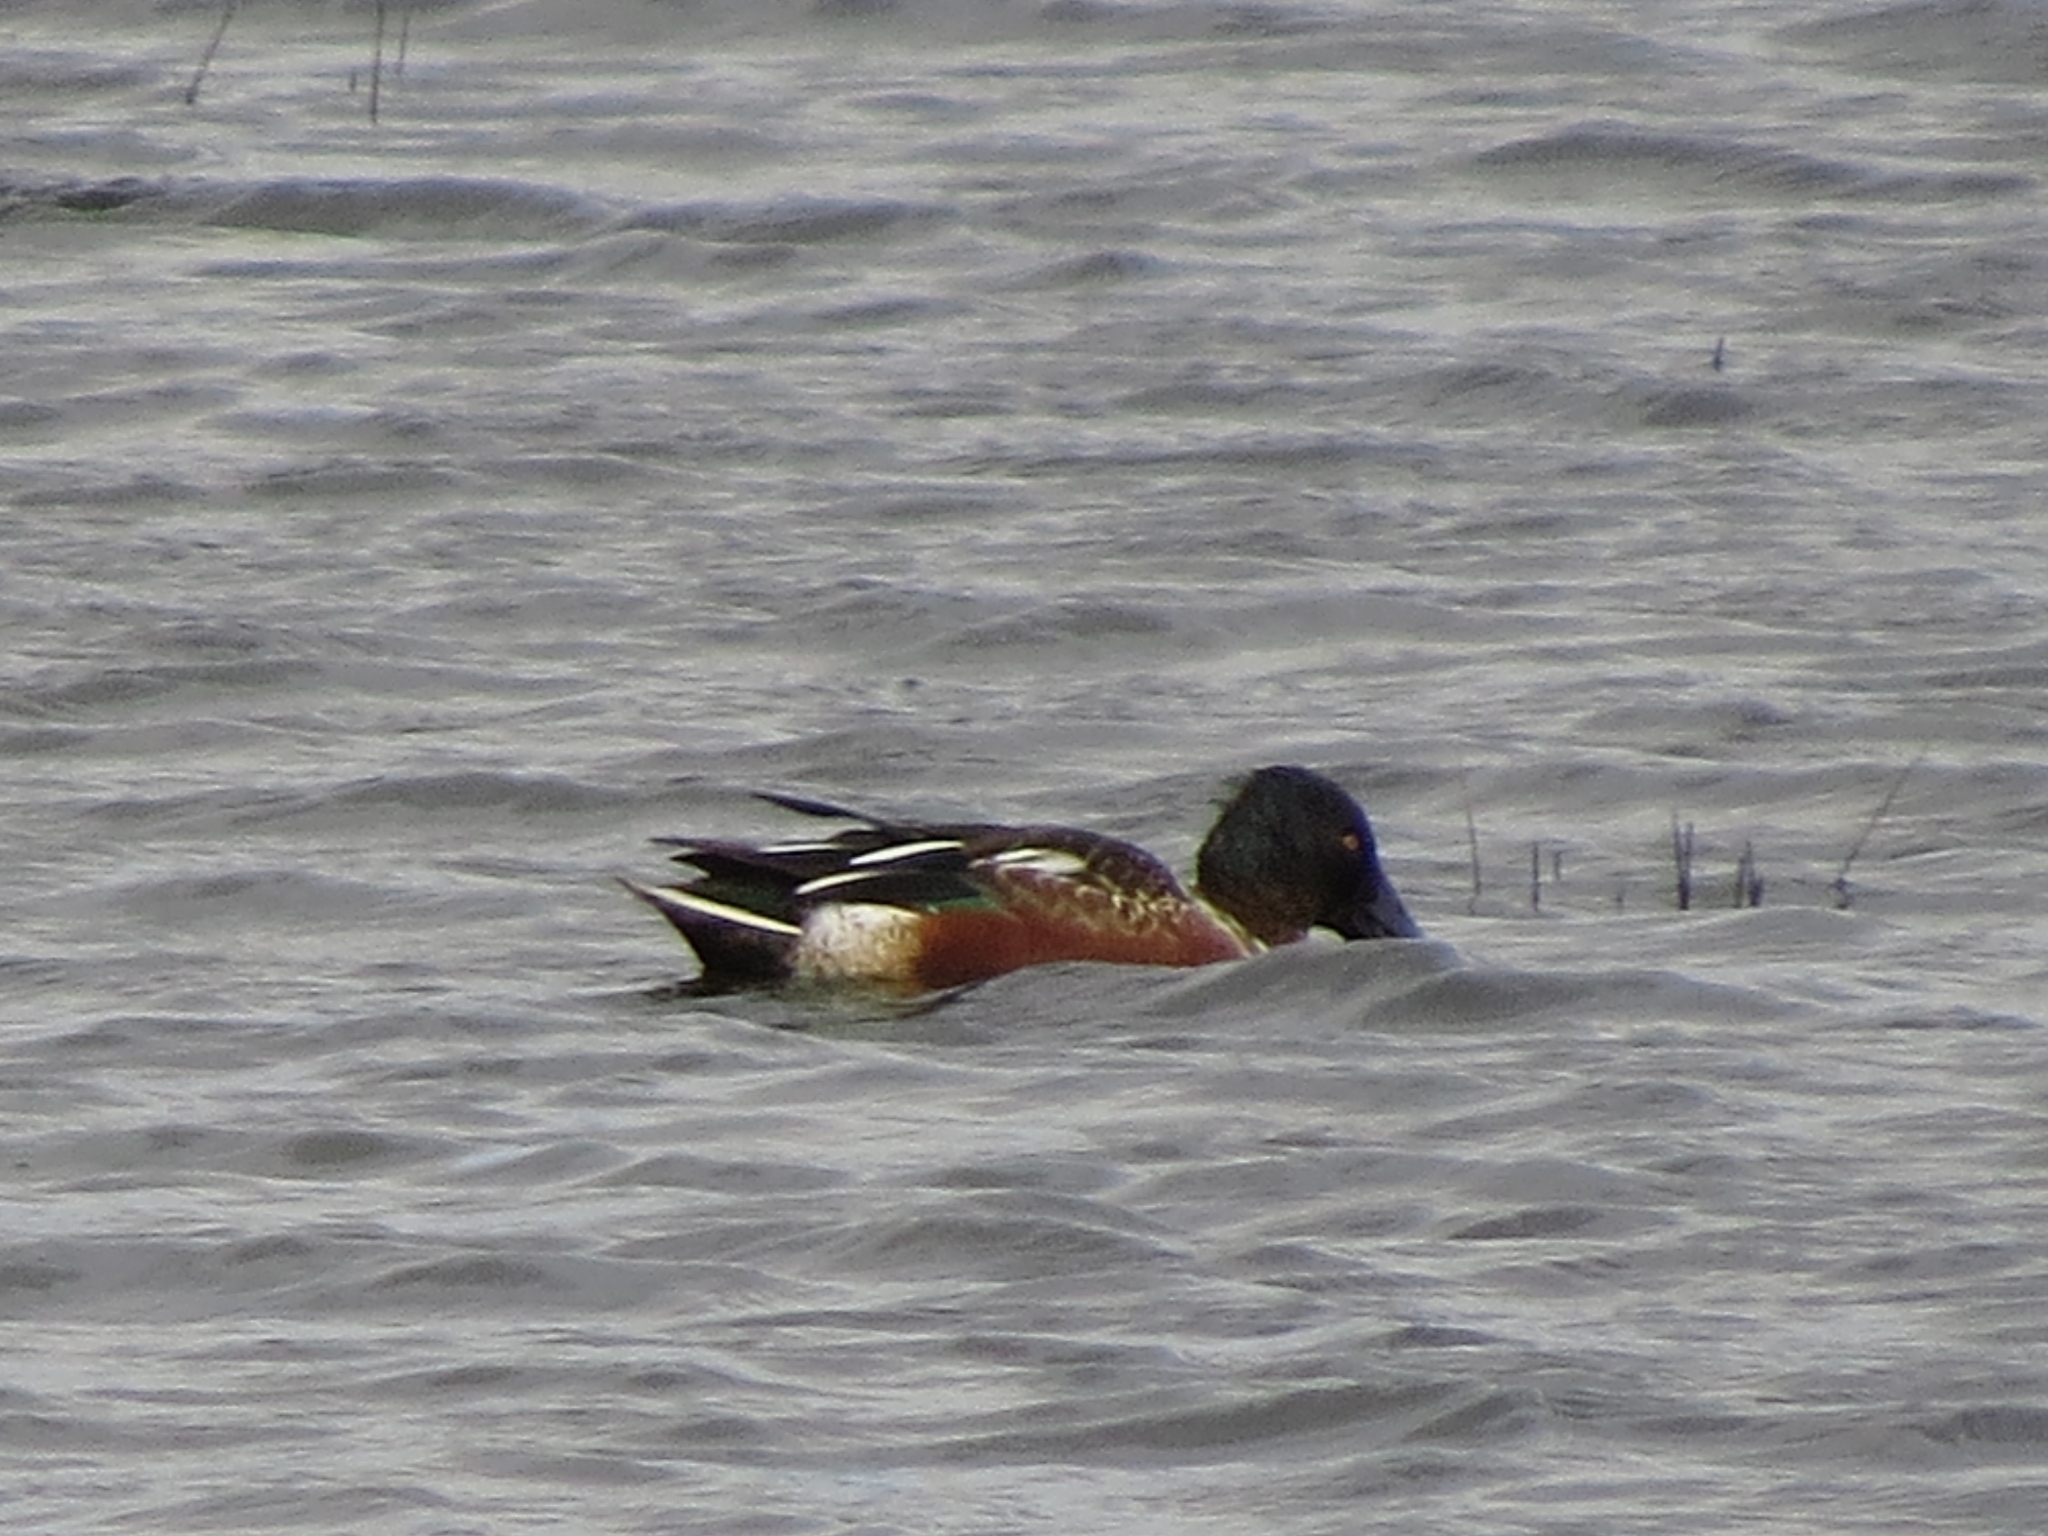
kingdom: Animalia
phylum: Chordata
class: Aves
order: Anseriformes
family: Anatidae
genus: Spatula
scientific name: Spatula clypeata
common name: Northern shoveler
